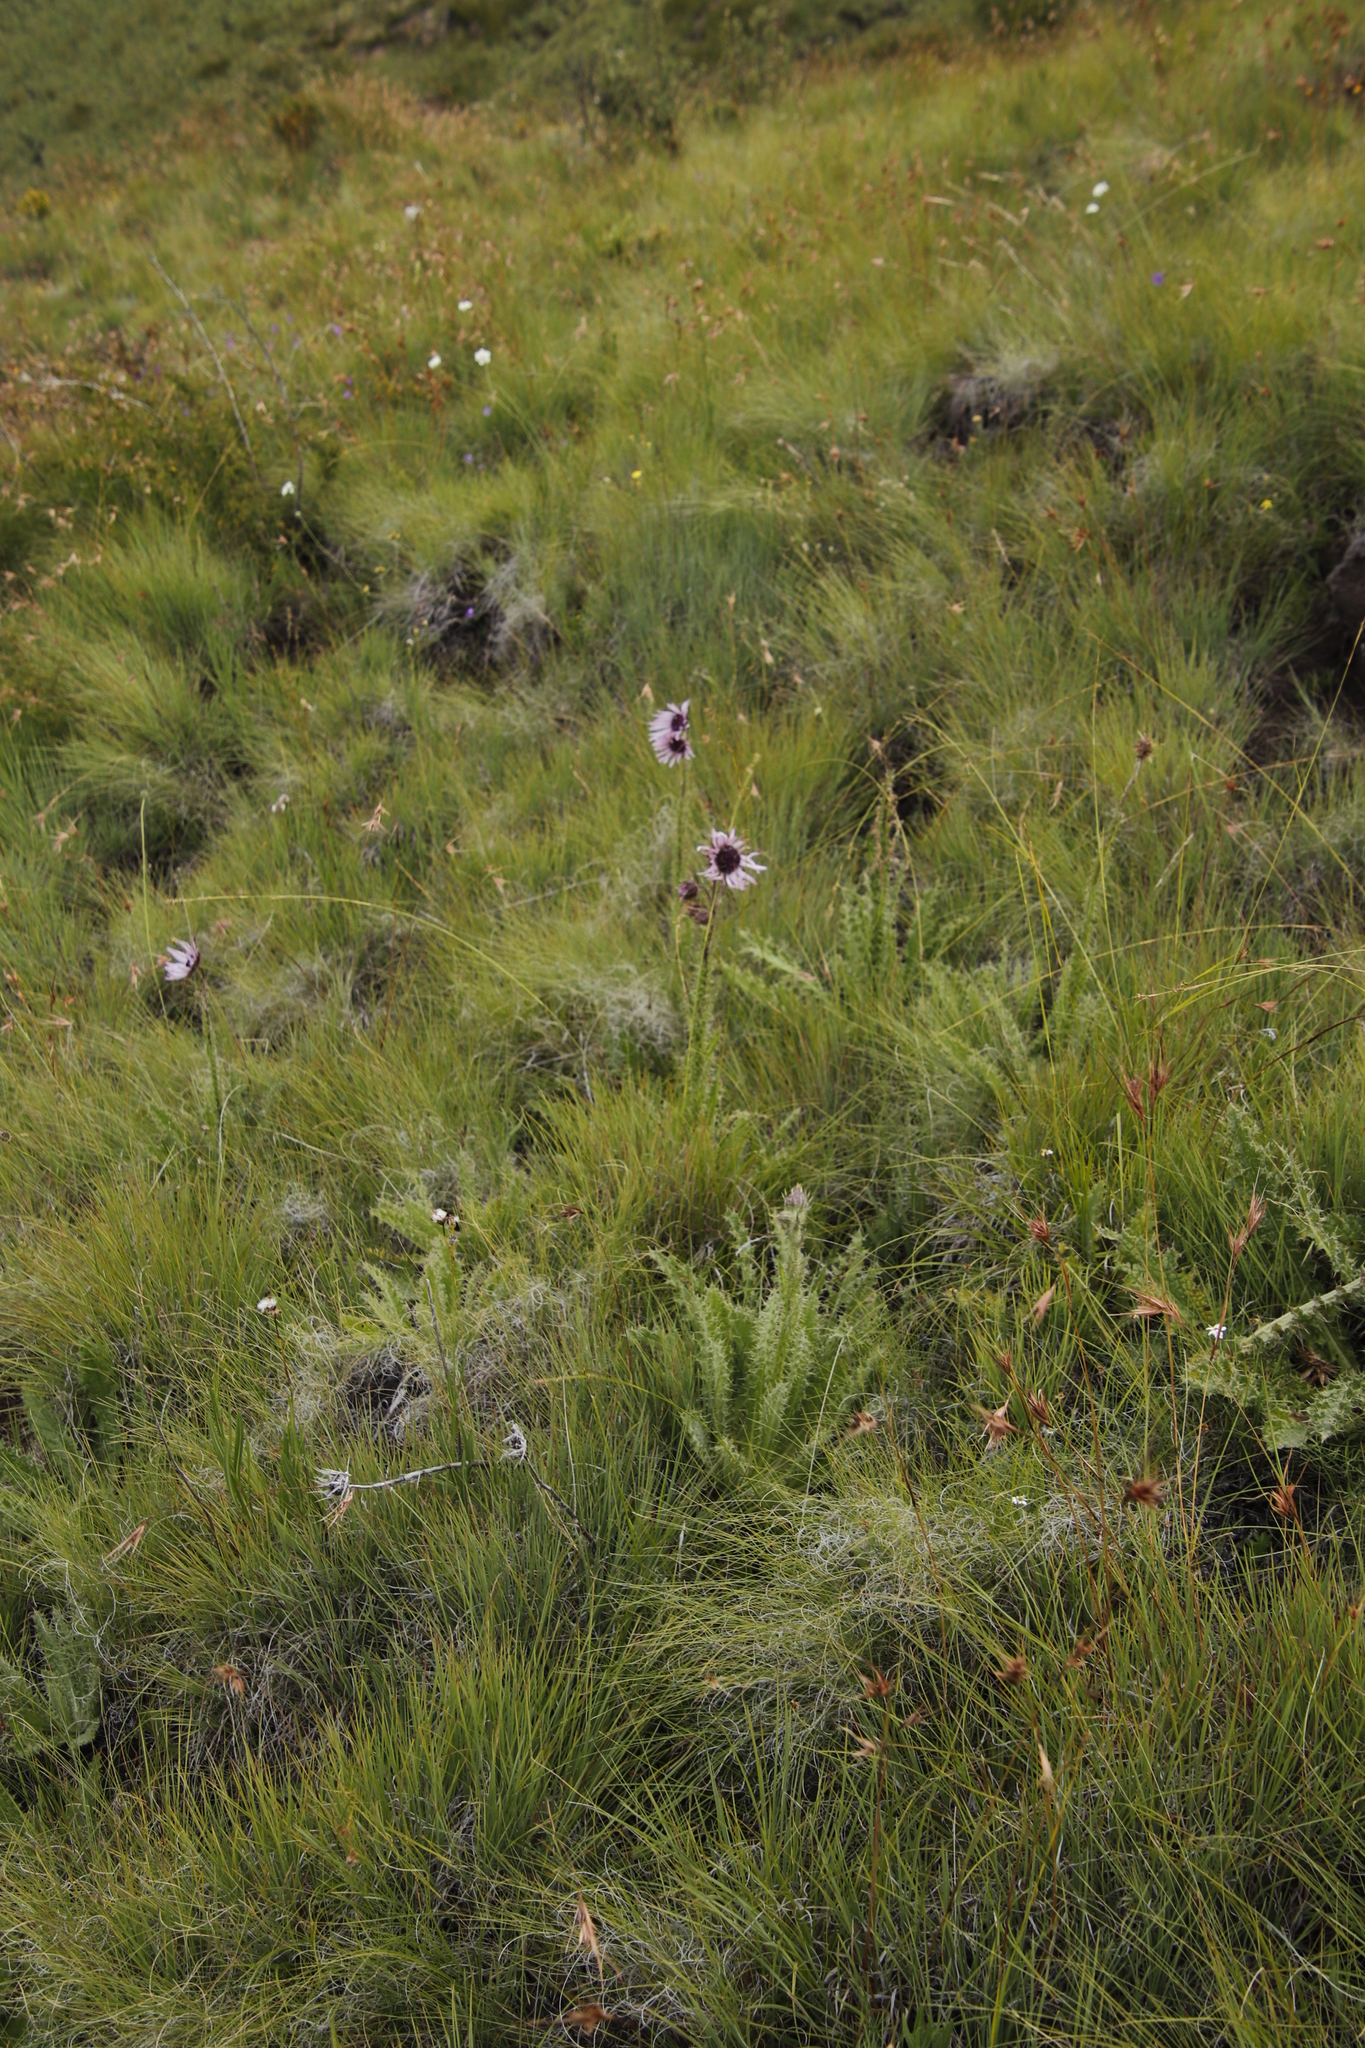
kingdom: Plantae
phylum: Tracheophyta
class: Magnoliopsida
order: Asterales
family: Asteraceae
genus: Berkheya
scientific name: Berkheya purpurea
